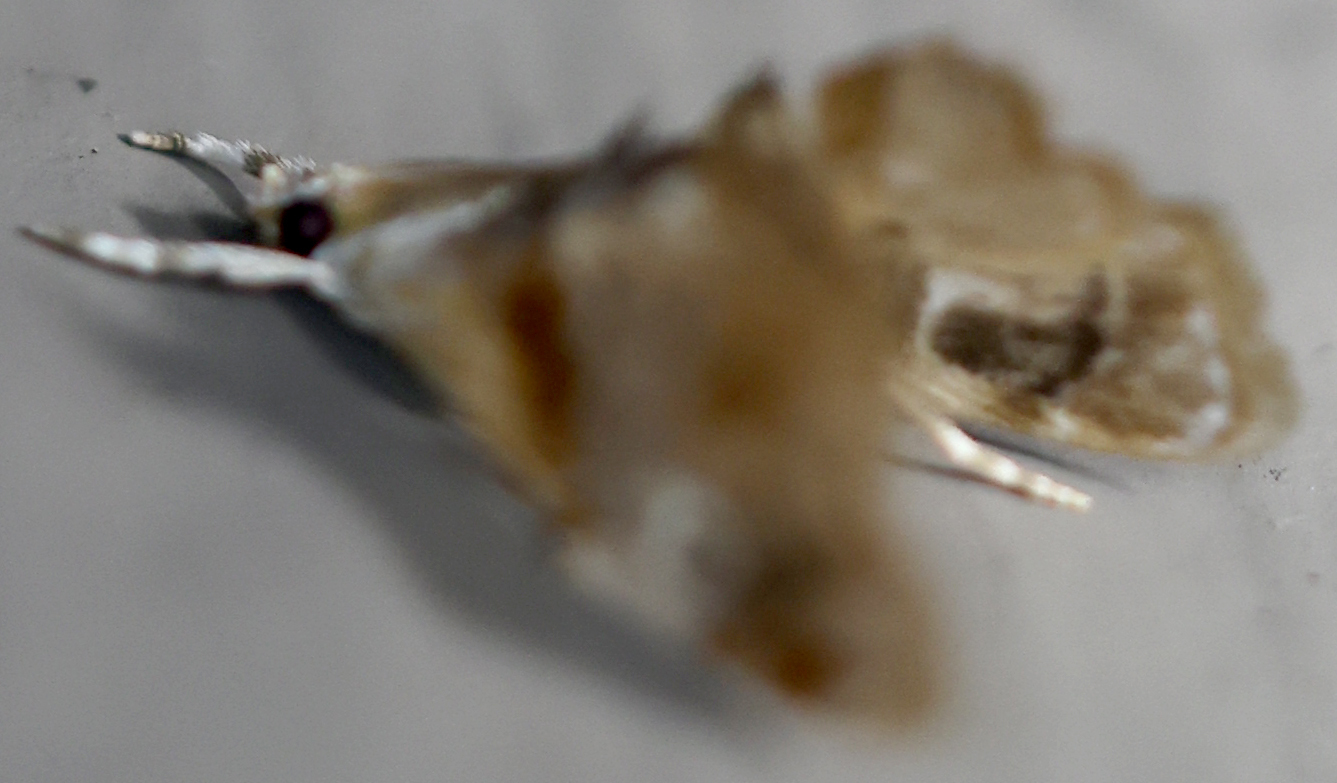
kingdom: Animalia
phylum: Arthropoda
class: Insecta
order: Lepidoptera
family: Crambidae
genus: Dicymolomia
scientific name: Dicymolomia julianalis
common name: Julia's dicymolomia moth
